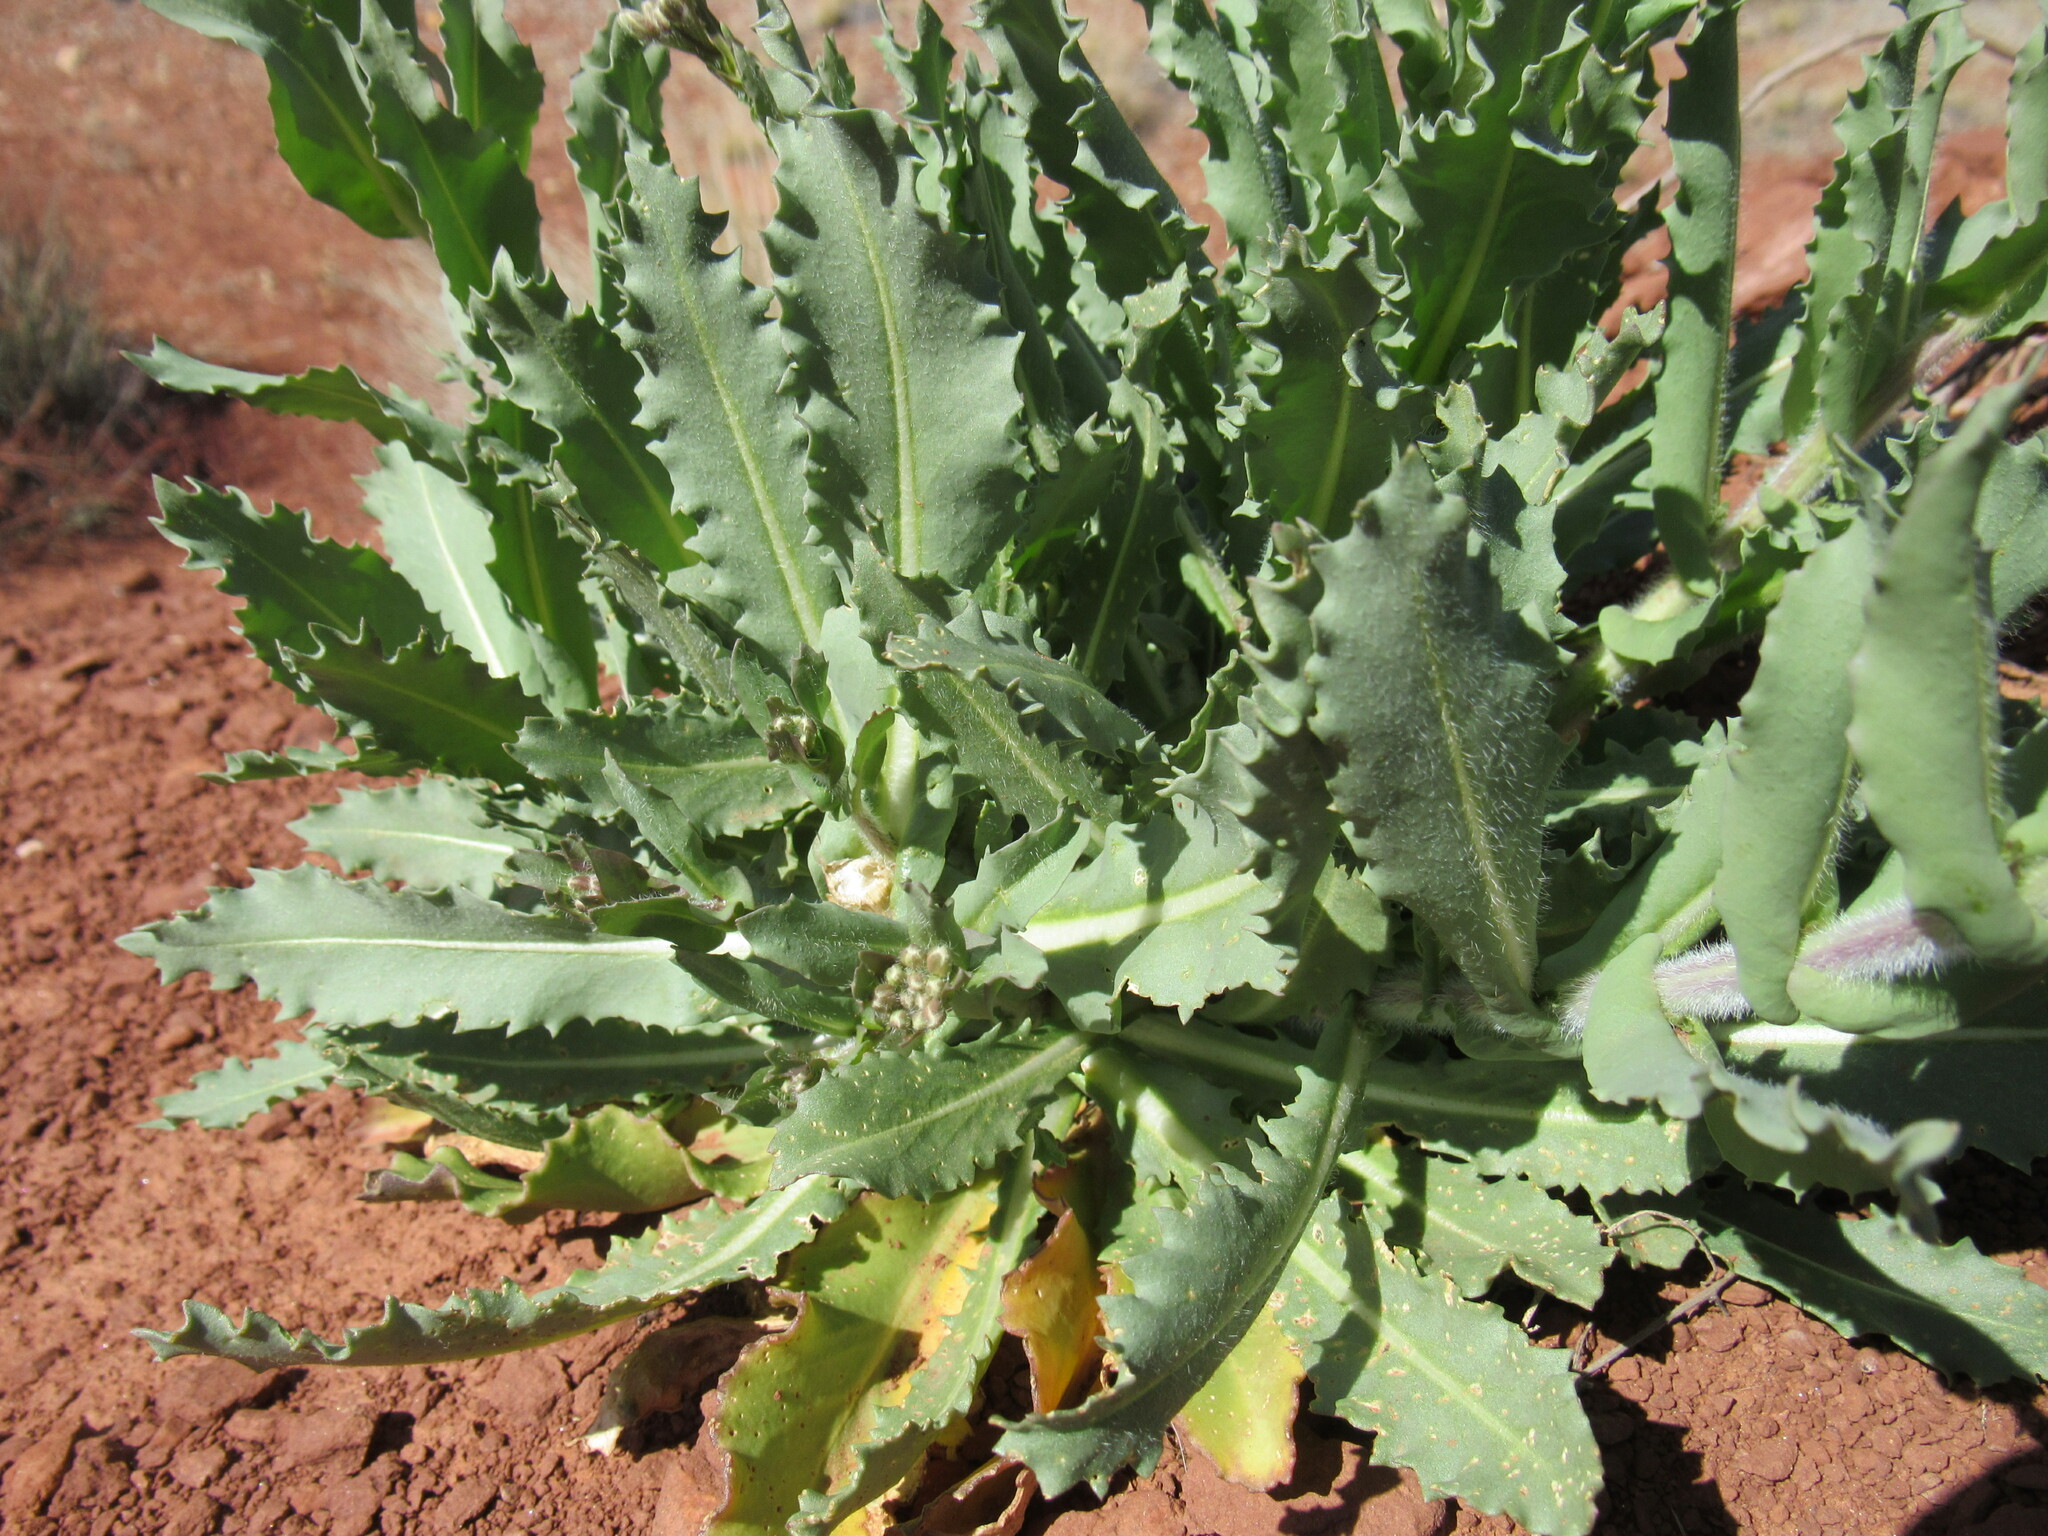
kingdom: Plantae
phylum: Tracheophyta
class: Magnoliopsida
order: Brassicales
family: Brassicaceae
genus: Streptanthus
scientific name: Streptanthus longirostris
